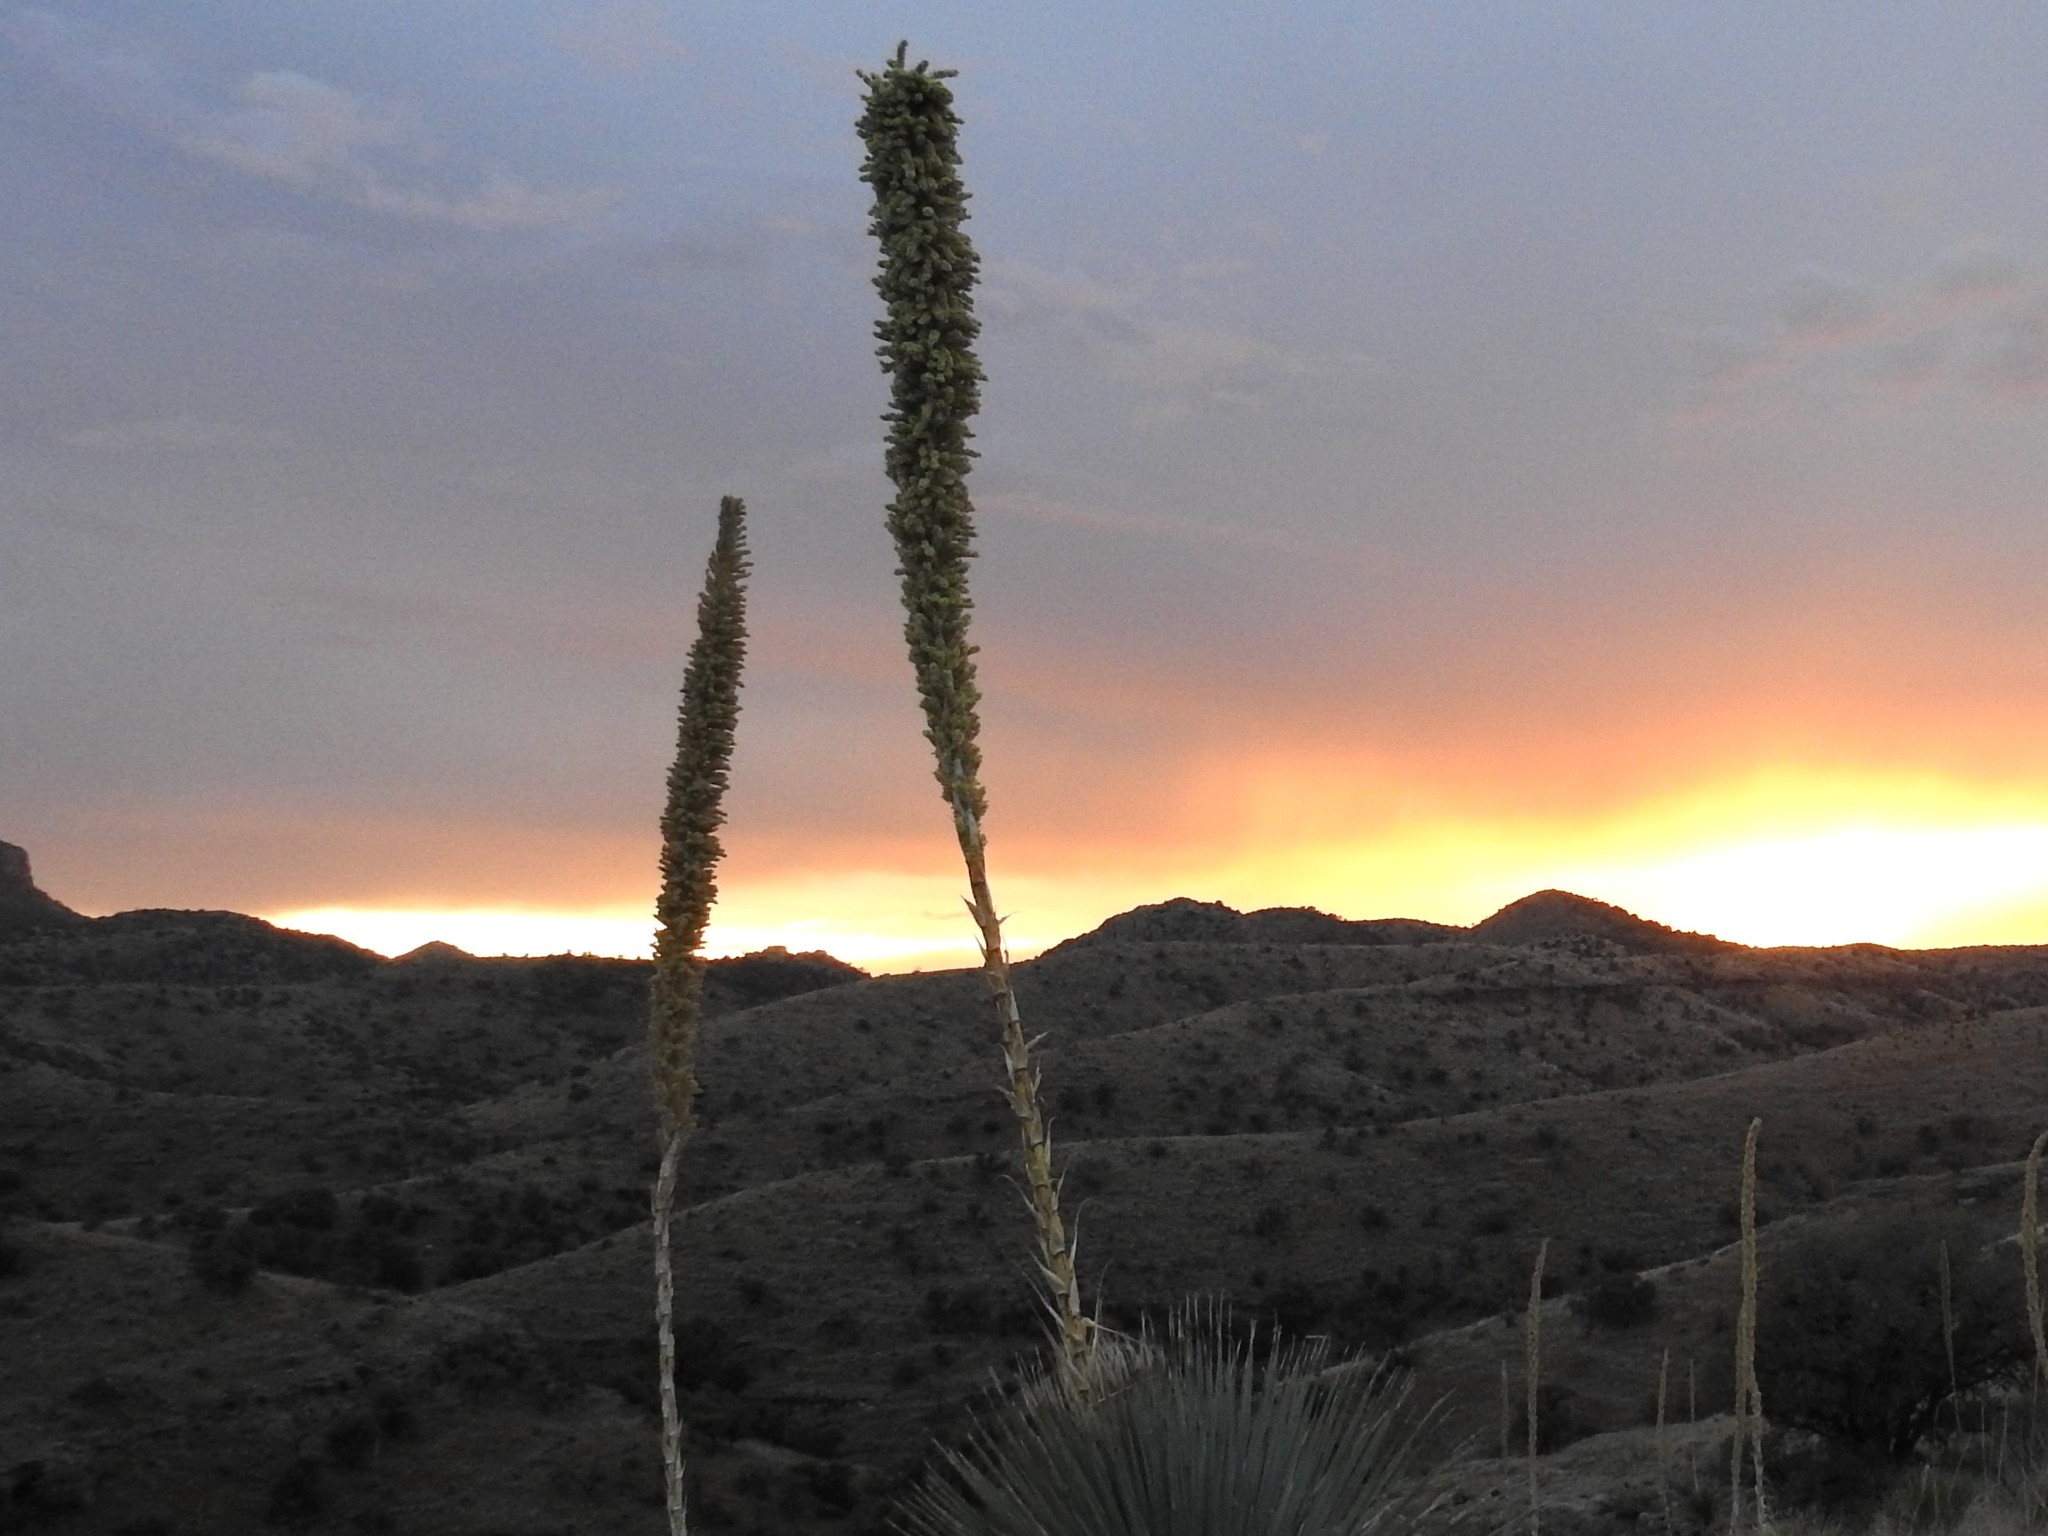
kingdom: Plantae
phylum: Tracheophyta
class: Liliopsida
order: Asparagales
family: Asparagaceae
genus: Dasylirion
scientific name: Dasylirion wheeleri
